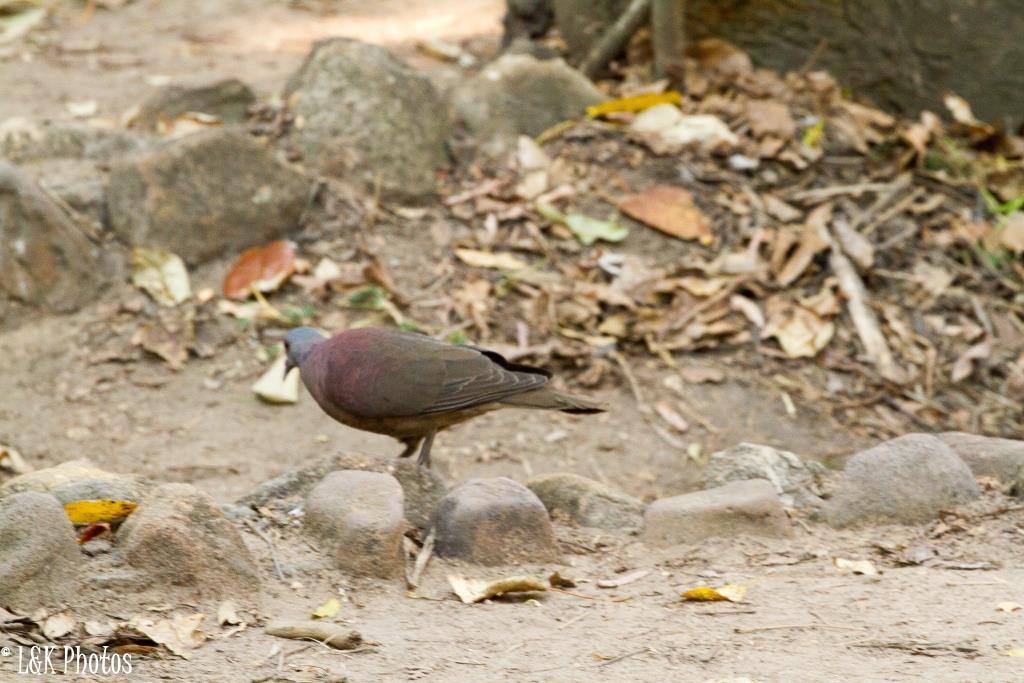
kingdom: Animalia
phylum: Chordata
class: Aves
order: Columbiformes
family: Columbidae
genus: Nesoenas
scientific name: Nesoenas picturatus
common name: Malagasy turtle dove
